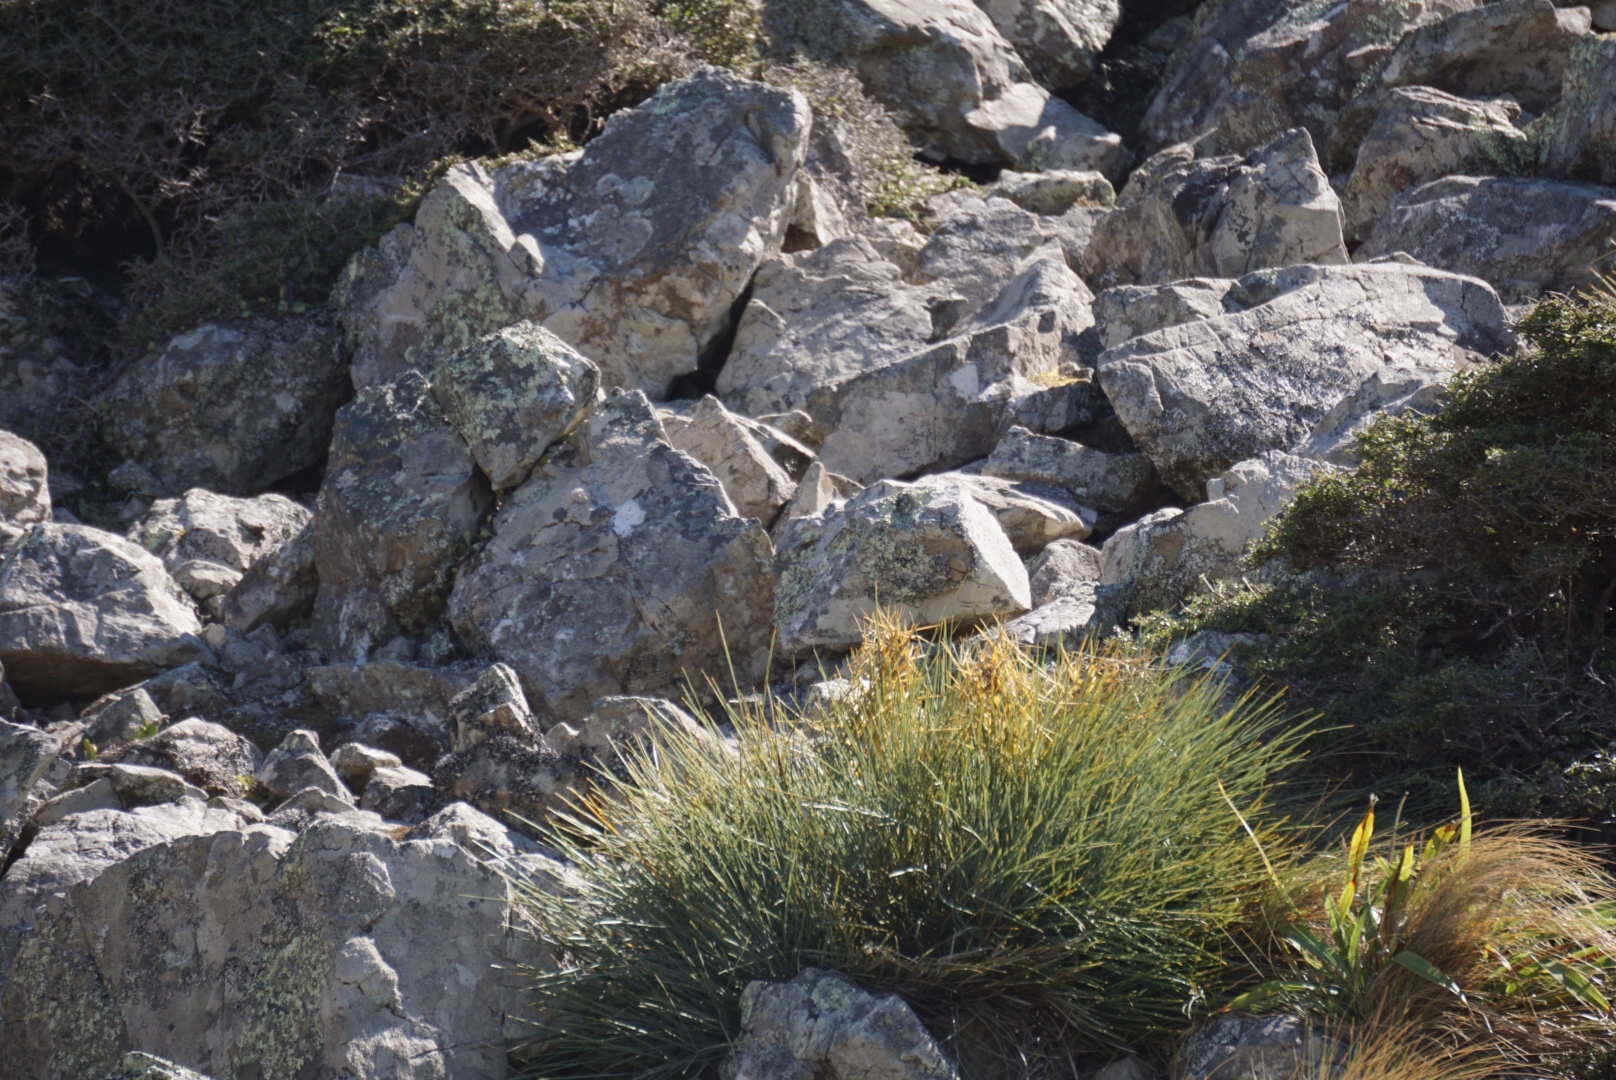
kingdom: Plantae
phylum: Tracheophyta
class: Magnoliopsida
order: Apiales
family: Apiaceae
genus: Aciphylla
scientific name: Aciphylla squarrosa
